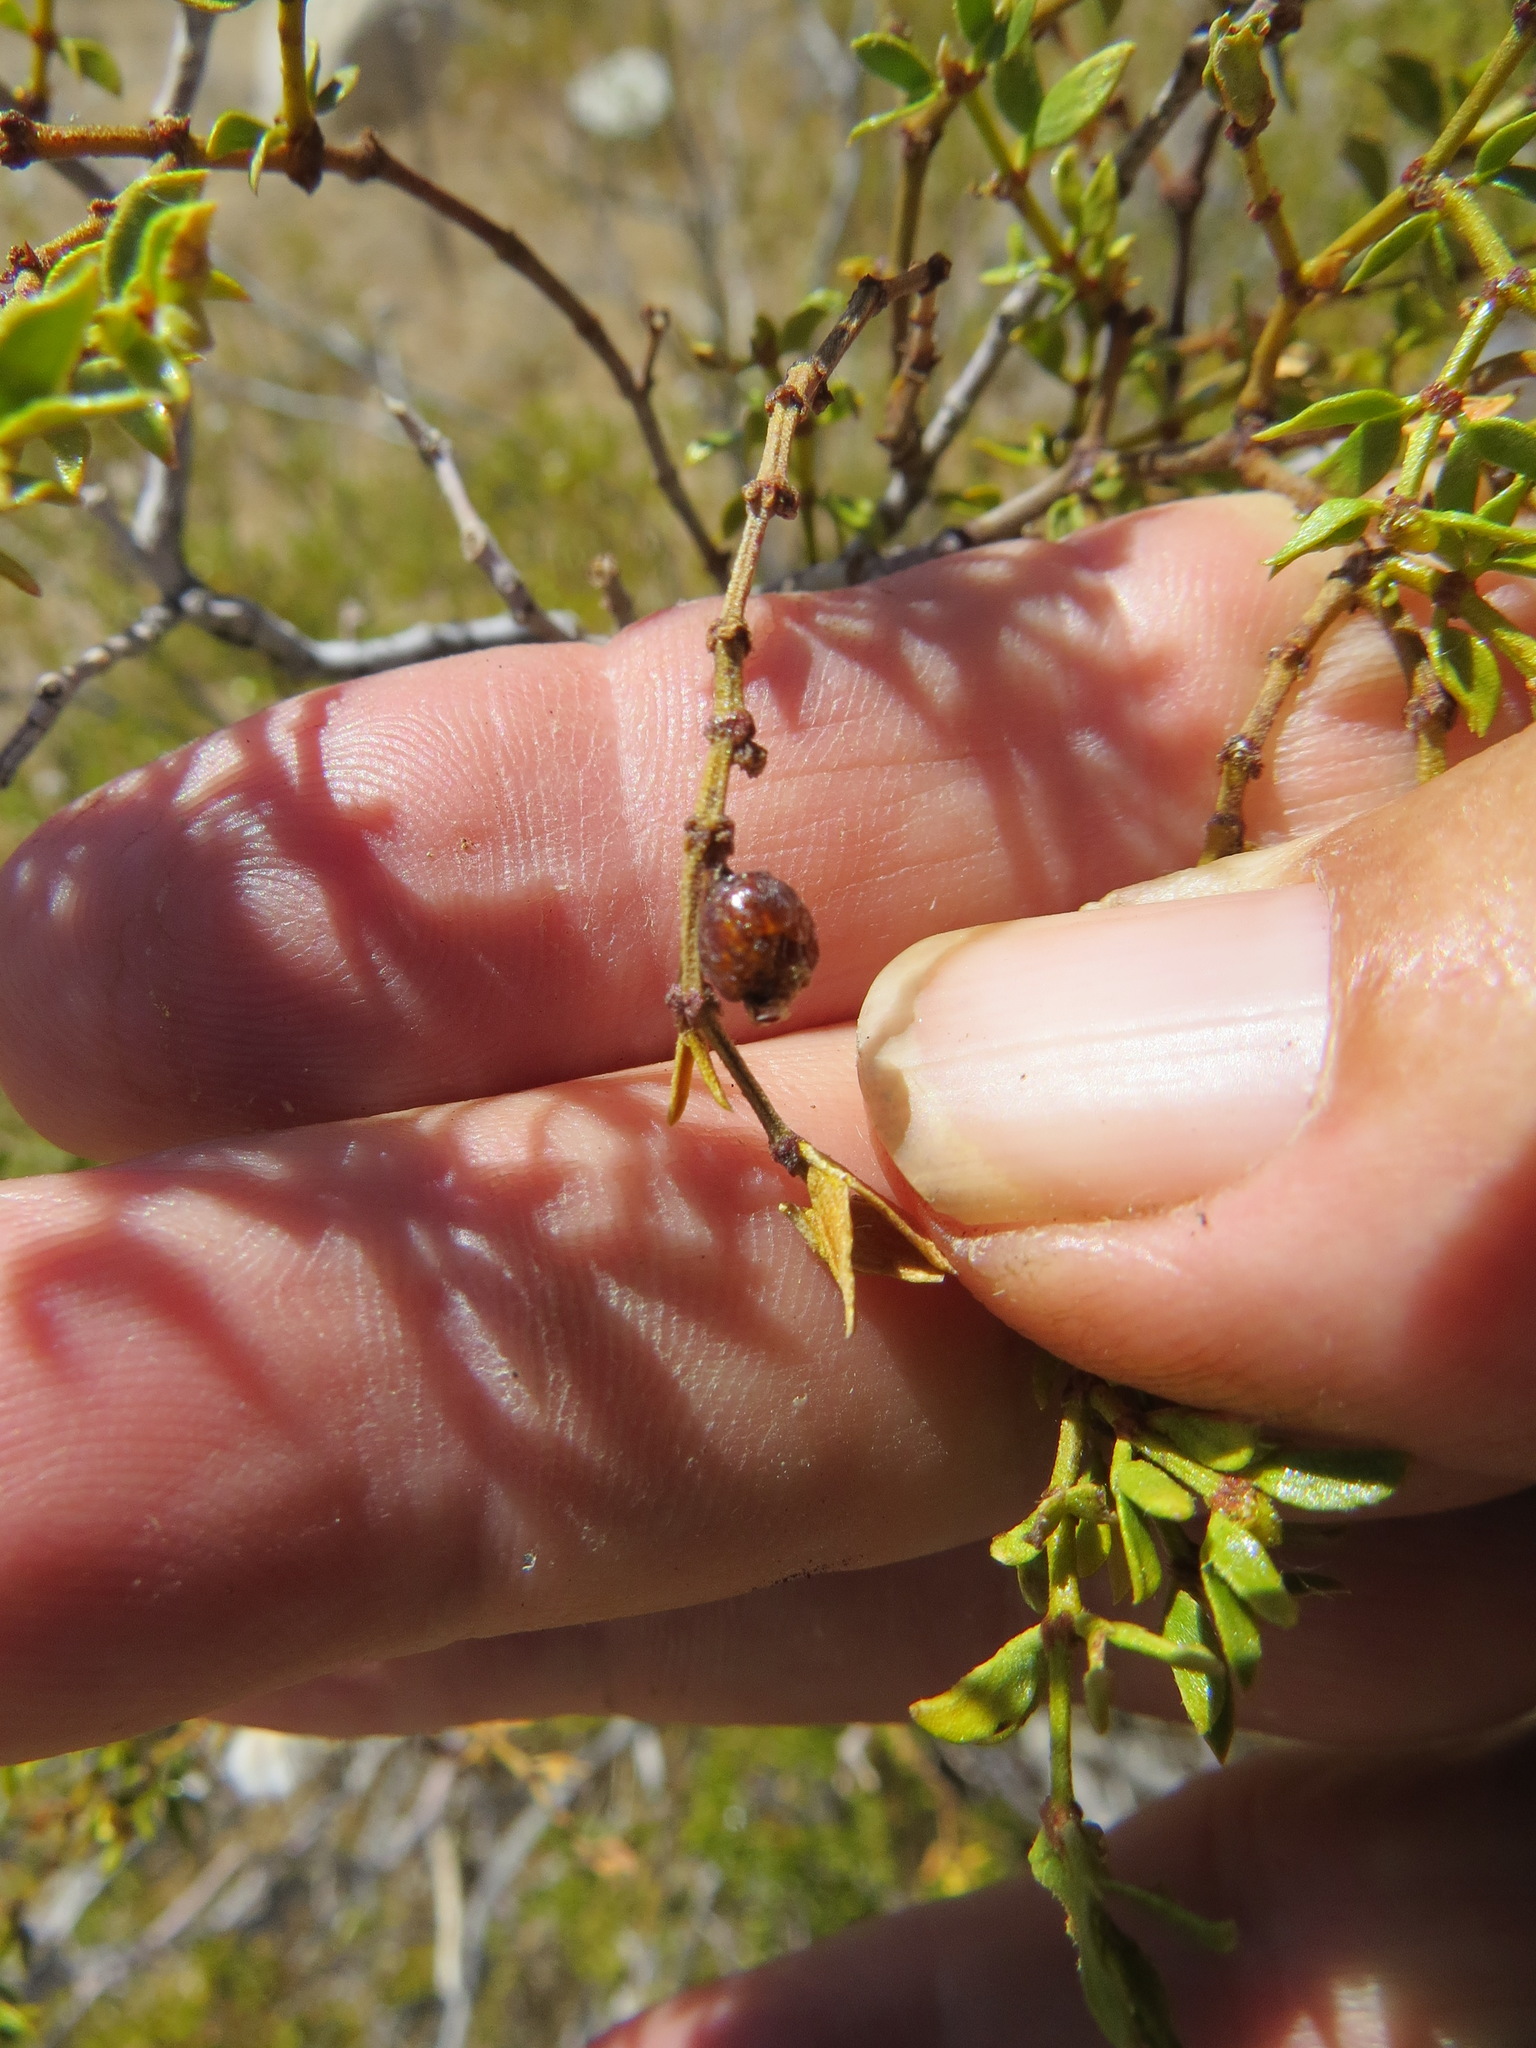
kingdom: Animalia
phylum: Arthropoda
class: Insecta
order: Diptera
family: Cecidomyiidae
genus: Asphondylia
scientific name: Asphondylia resinosa
